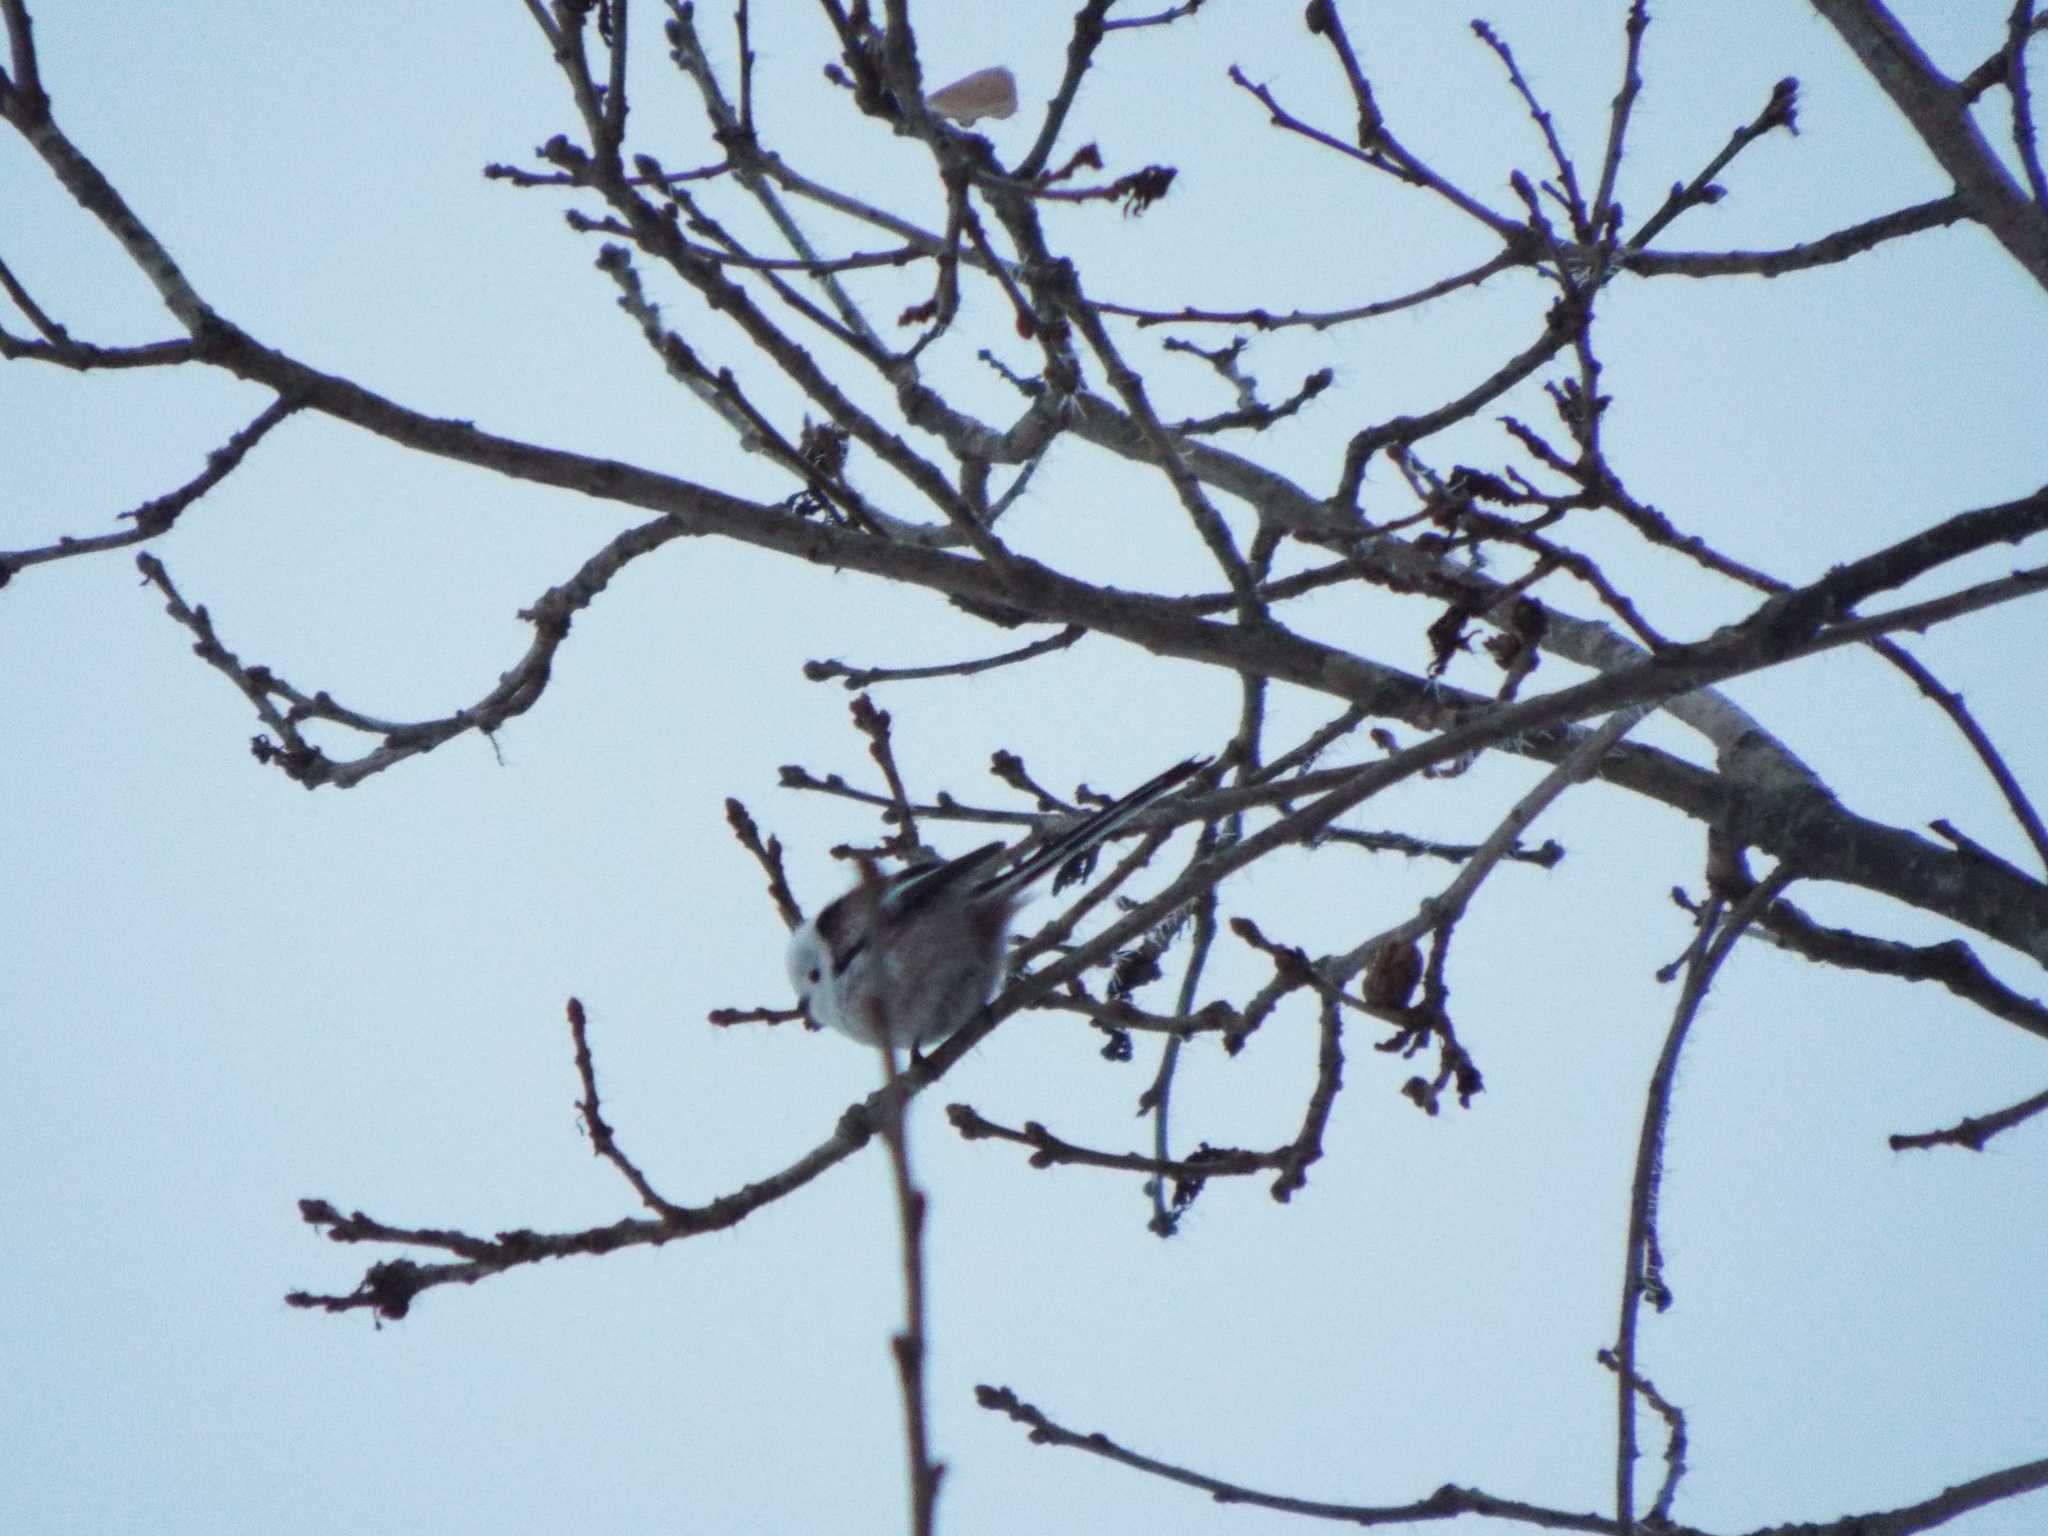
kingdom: Animalia
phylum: Chordata
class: Aves
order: Passeriformes
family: Aegithalidae
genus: Aegithalos
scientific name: Aegithalos caudatus
